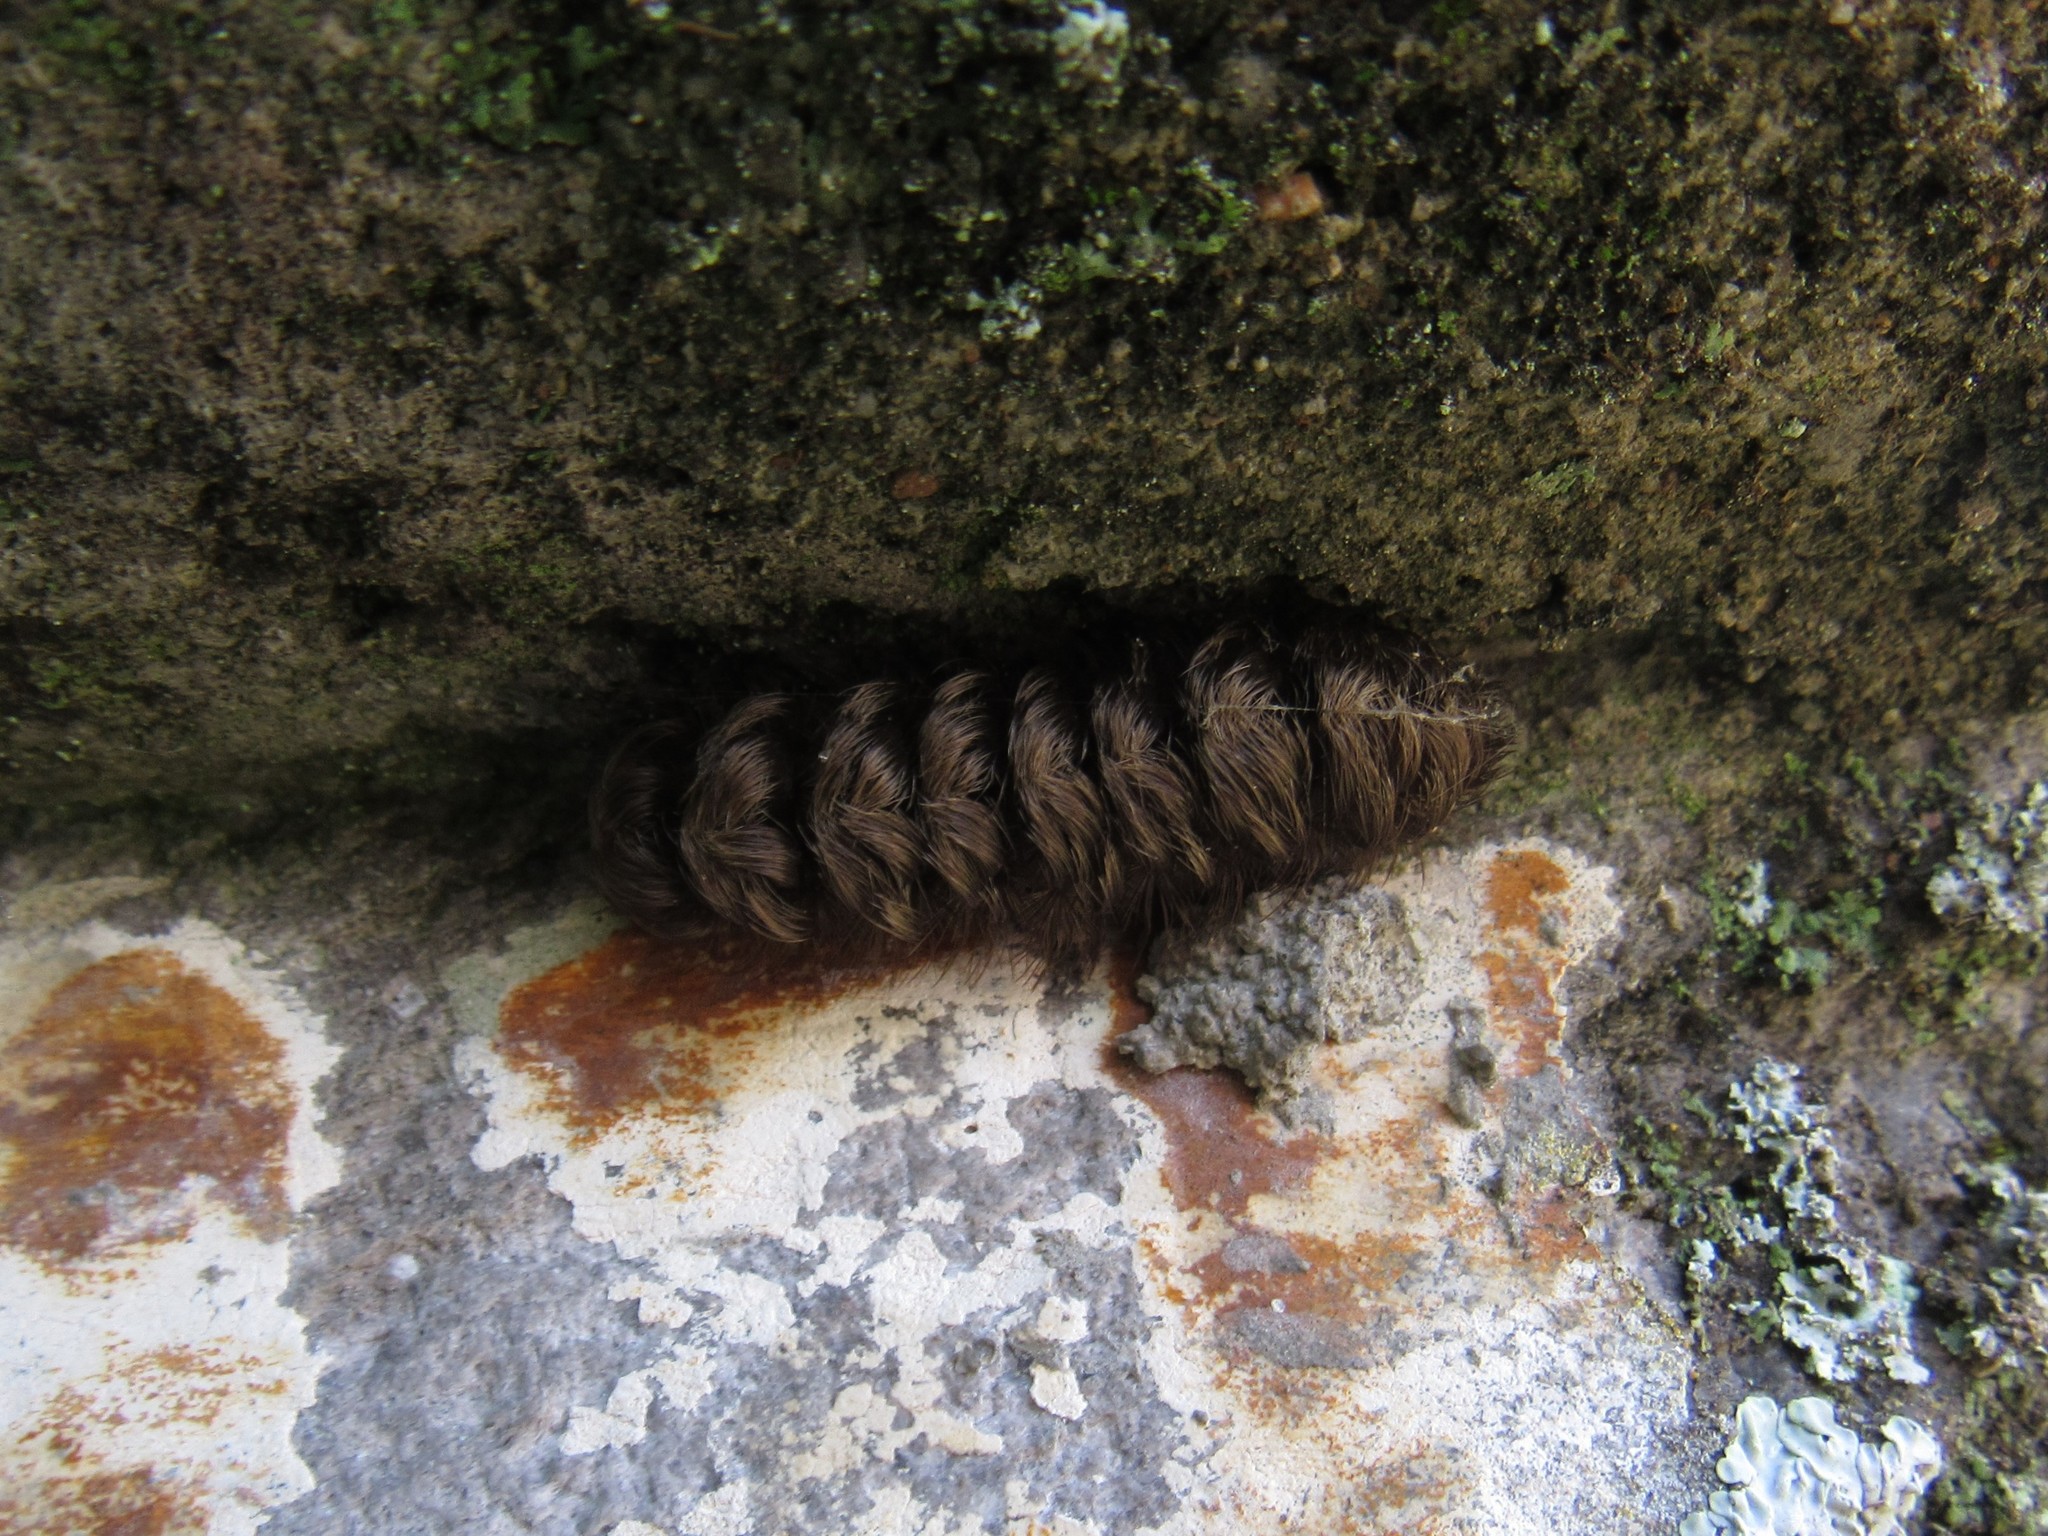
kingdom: Animalia
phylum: Arthropoda
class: Insecta
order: Lepidoptera
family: Erebidae
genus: Ectypia
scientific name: Ectypia clio
